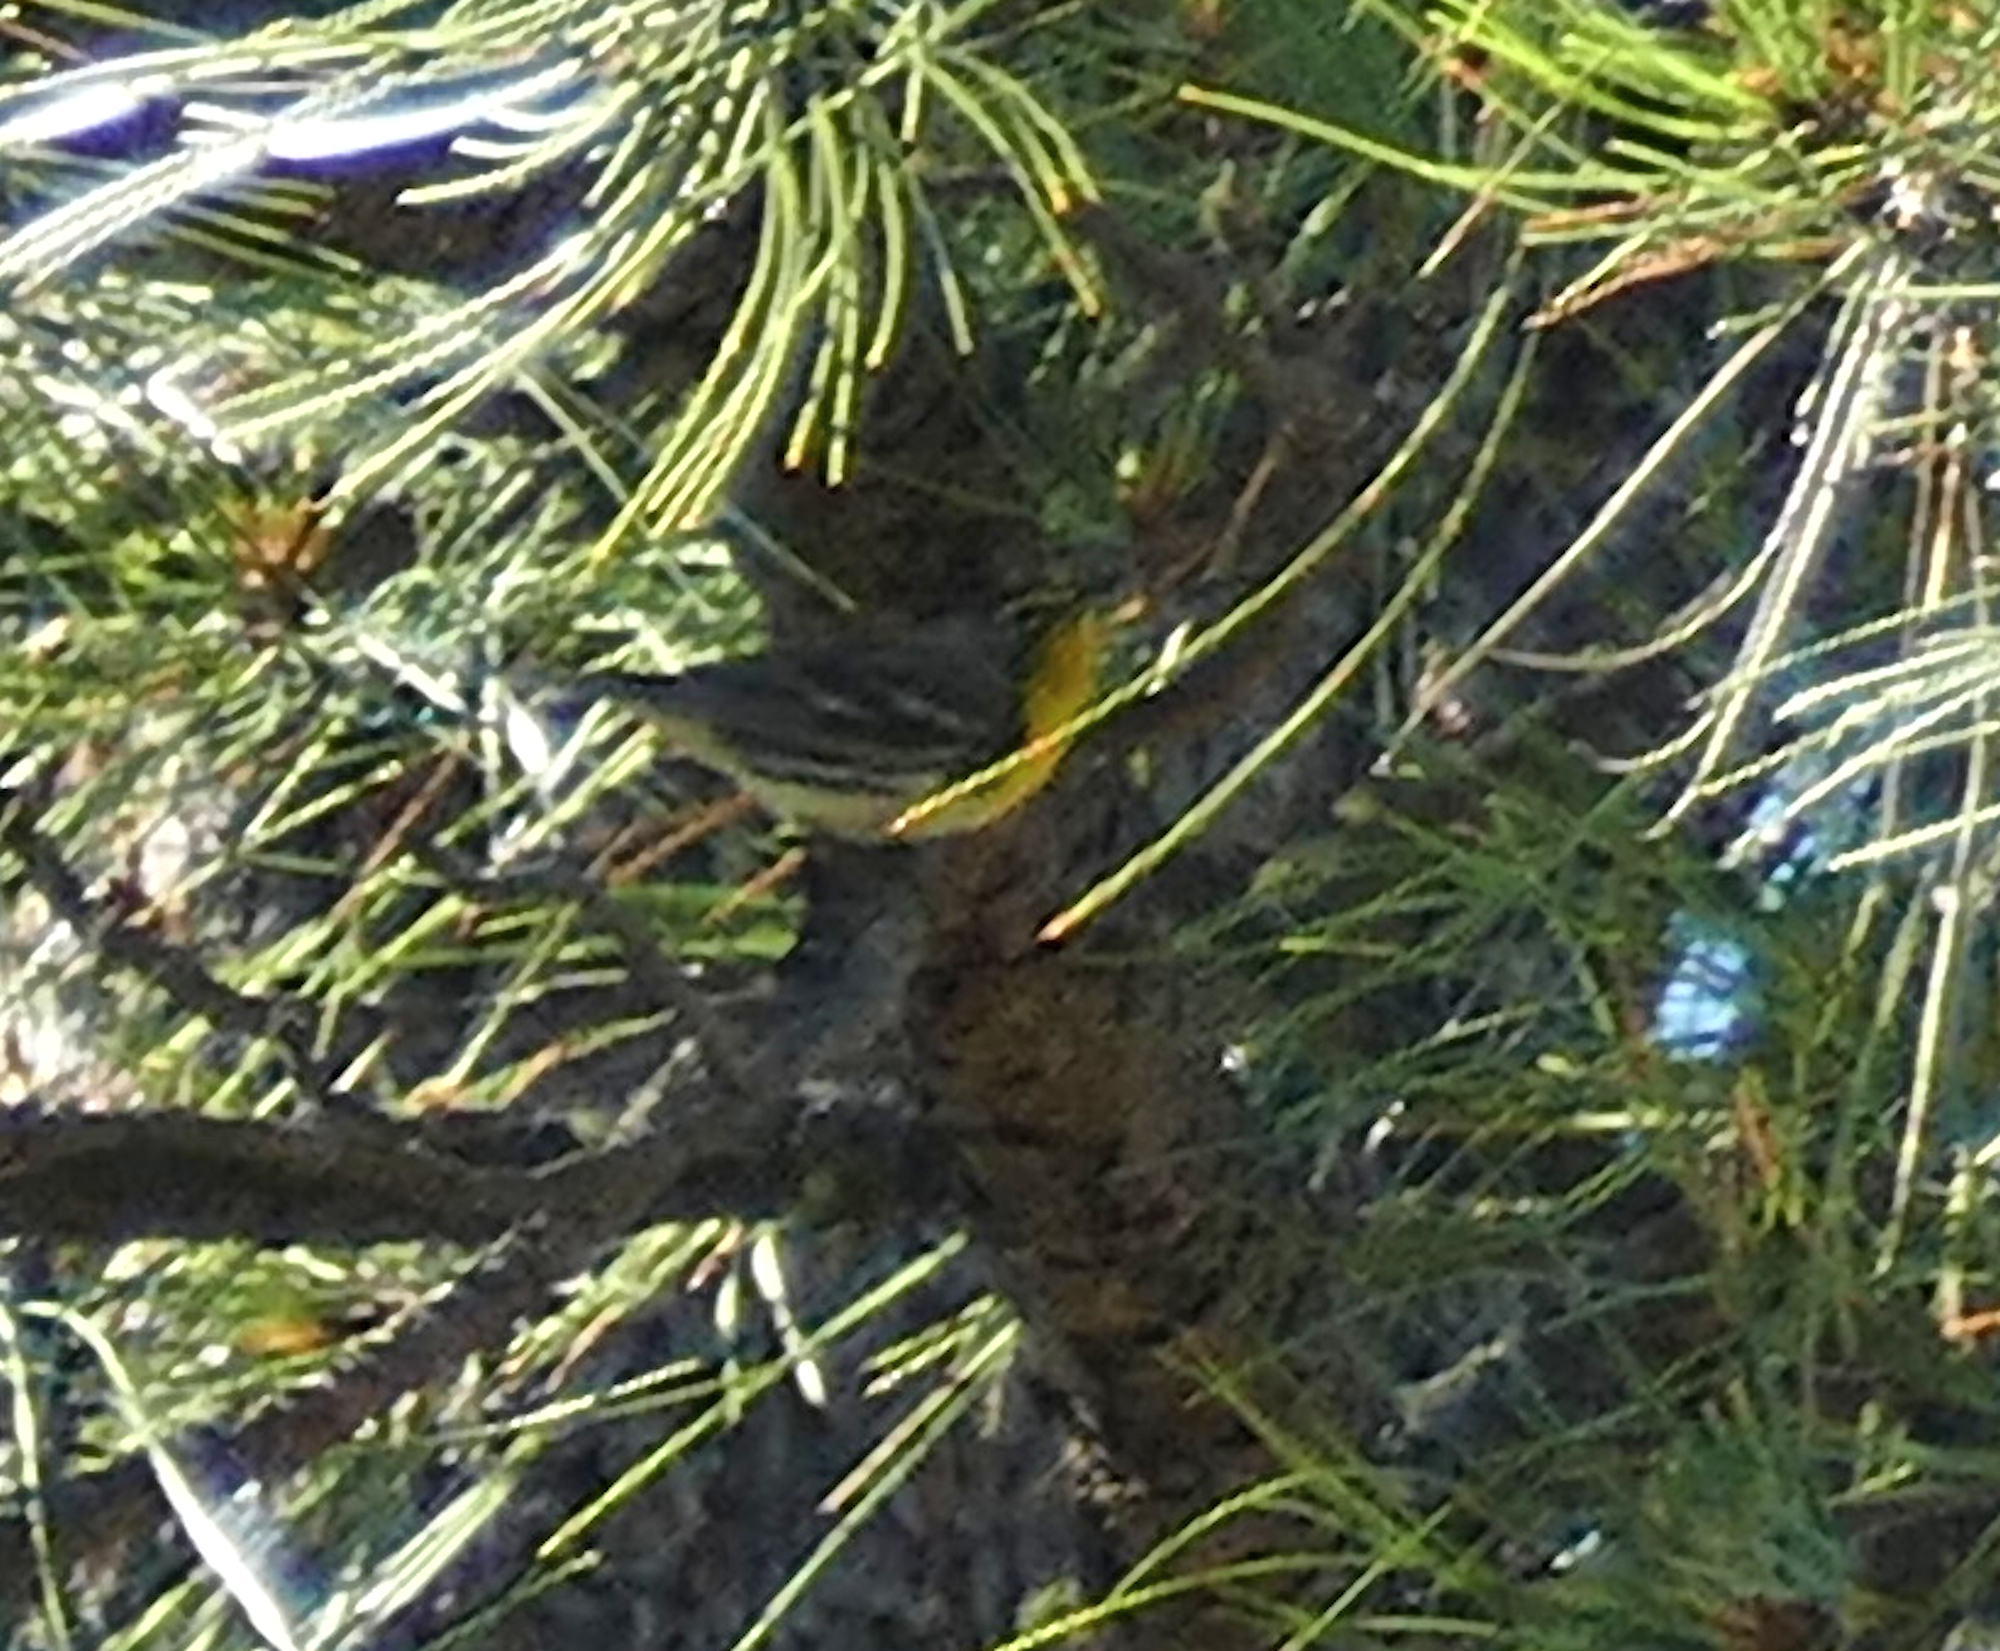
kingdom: Animalia
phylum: Chordata
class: Aves
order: Passeriformes
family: Parulidae
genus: Setophaga
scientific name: Setophaga graciae
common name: Grace's warbler
